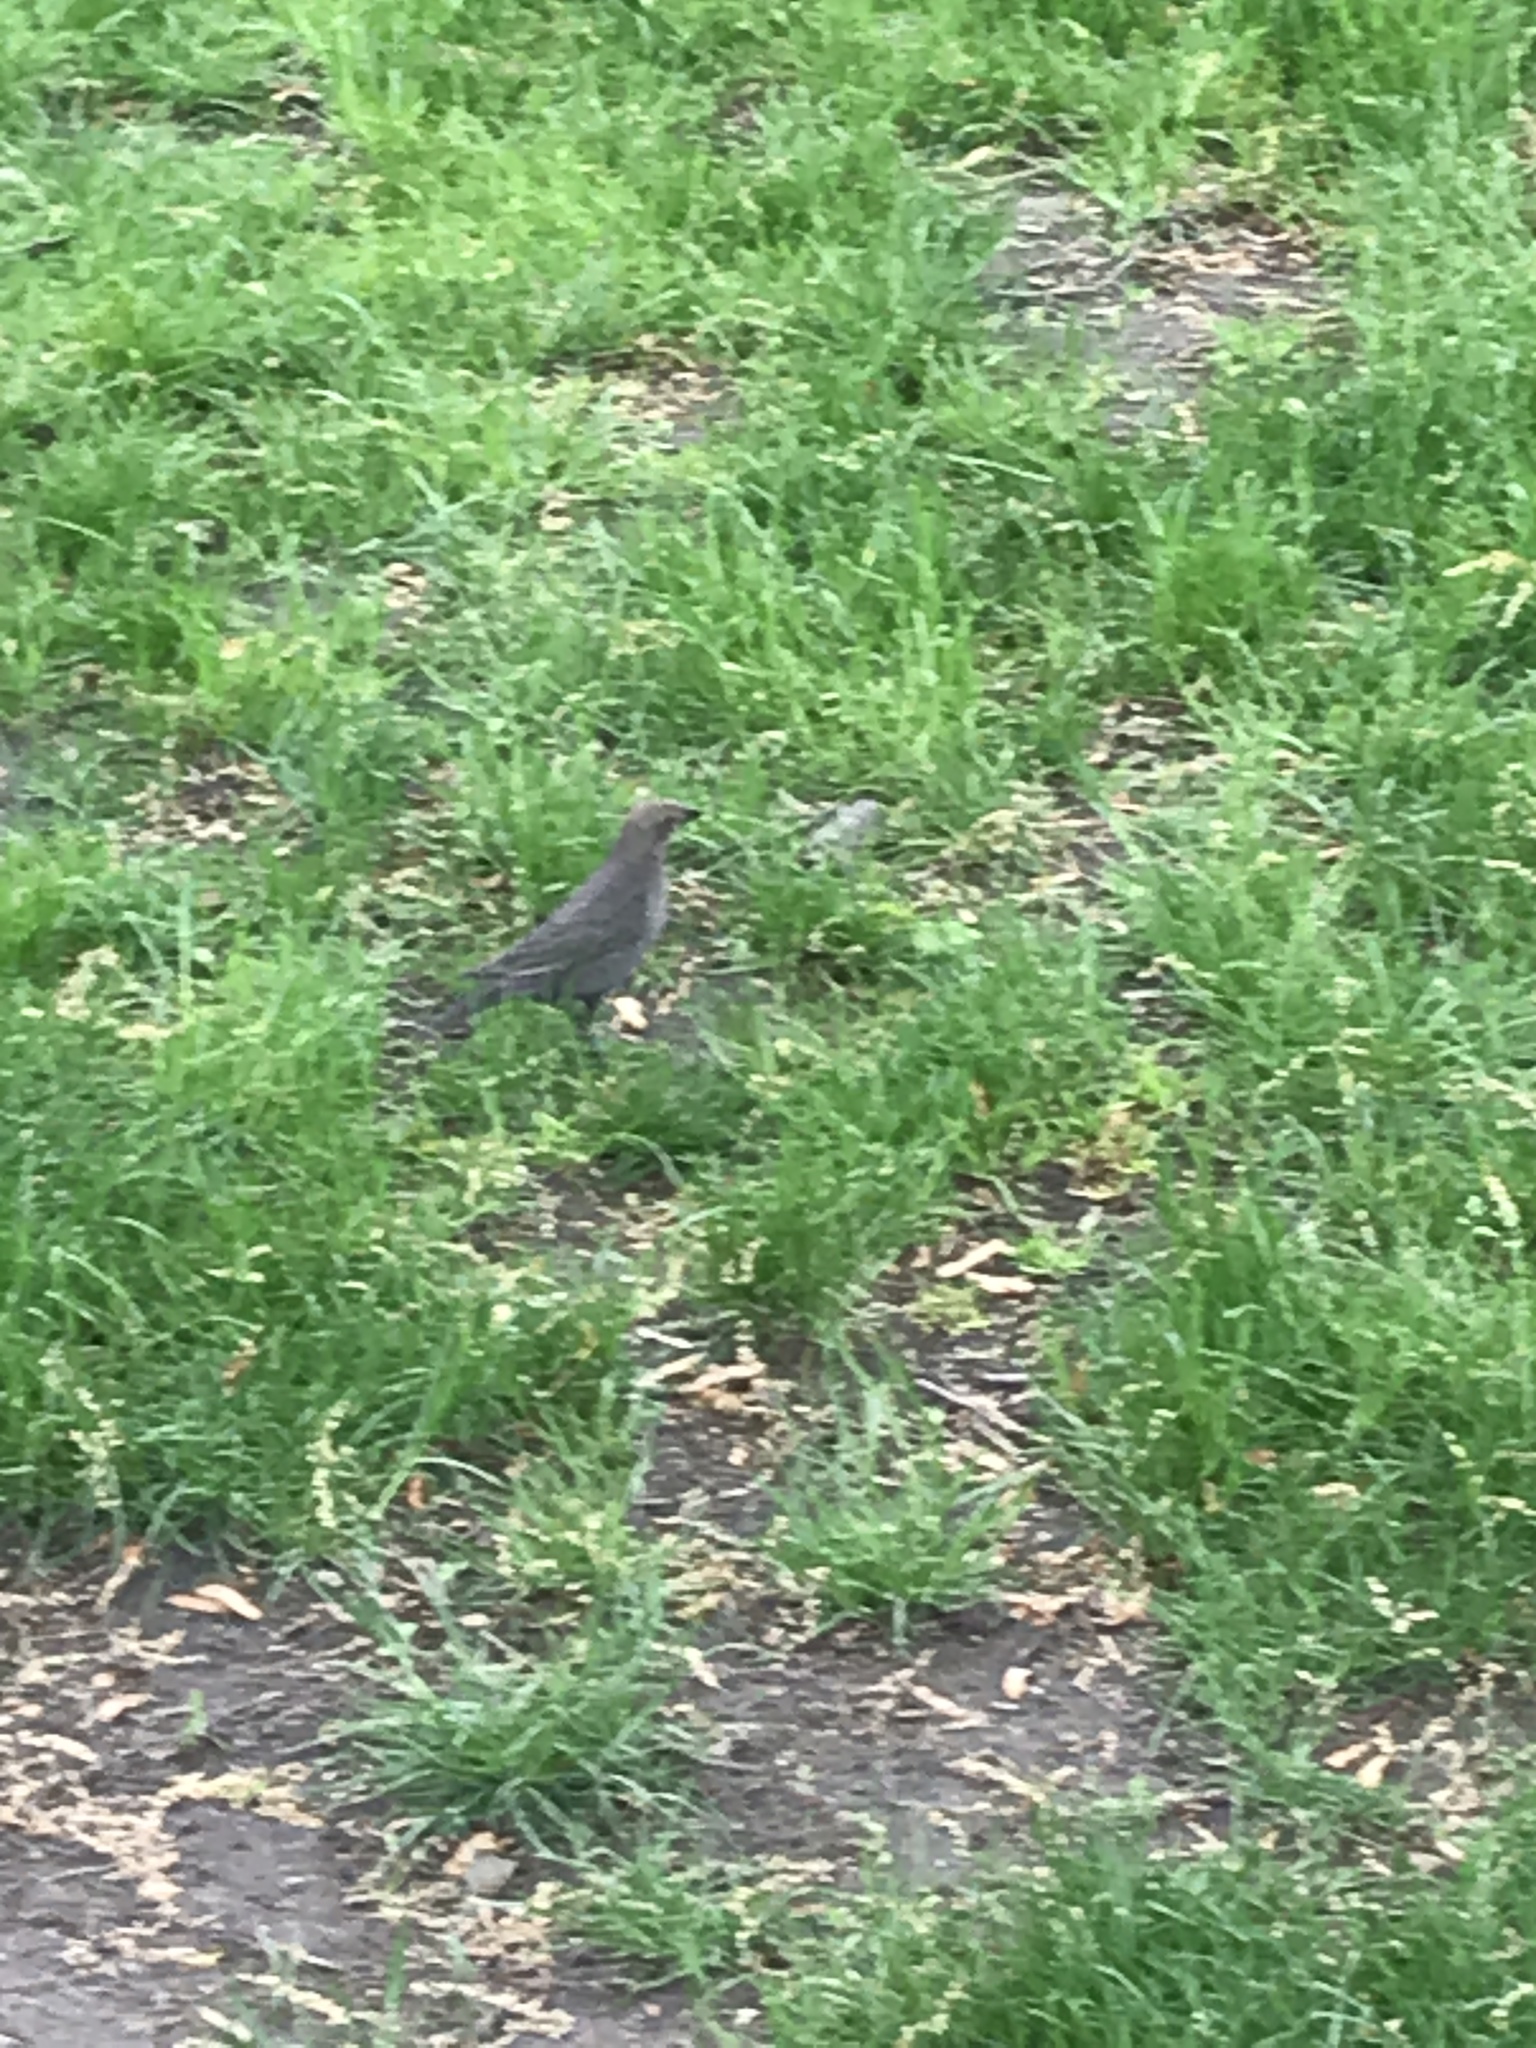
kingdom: Animalia
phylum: Chordata
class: Aves
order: Passeriformes
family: Icteridae
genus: Molothrus
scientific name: Molothrus ater
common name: Brown-headed cowbird
